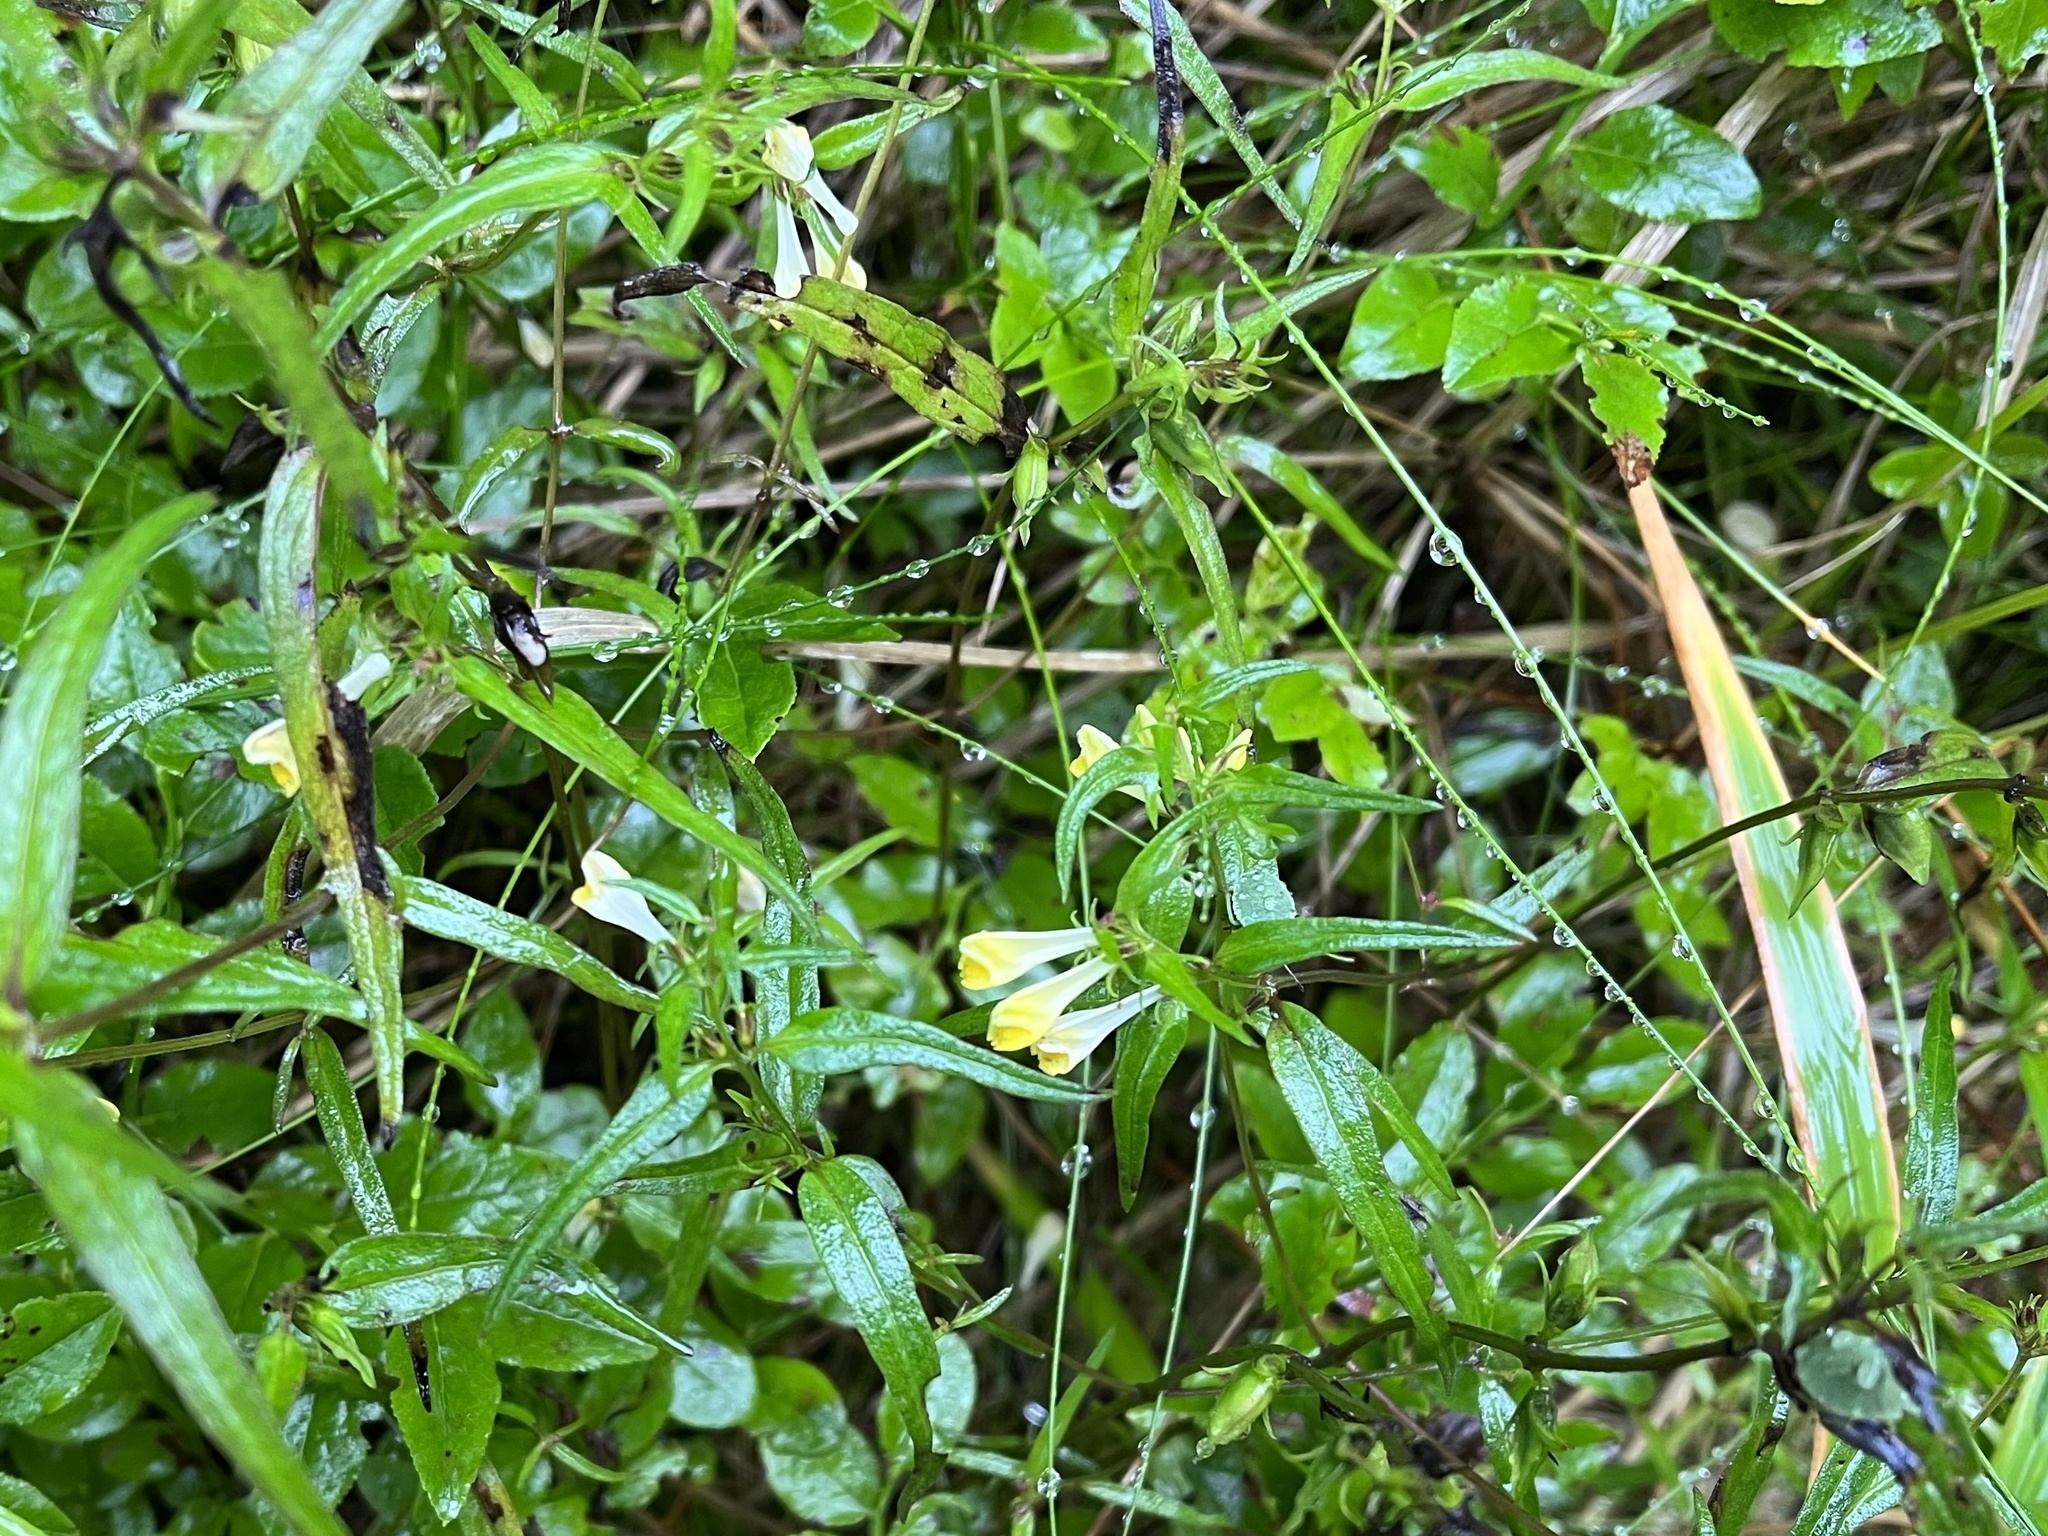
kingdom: Plantae
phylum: Tracheophyta
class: Magnoliopsida
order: Lamiales
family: Orobanchaceae
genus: Melampyrum
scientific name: Melampyrum pratense
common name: Common cow-wheat
